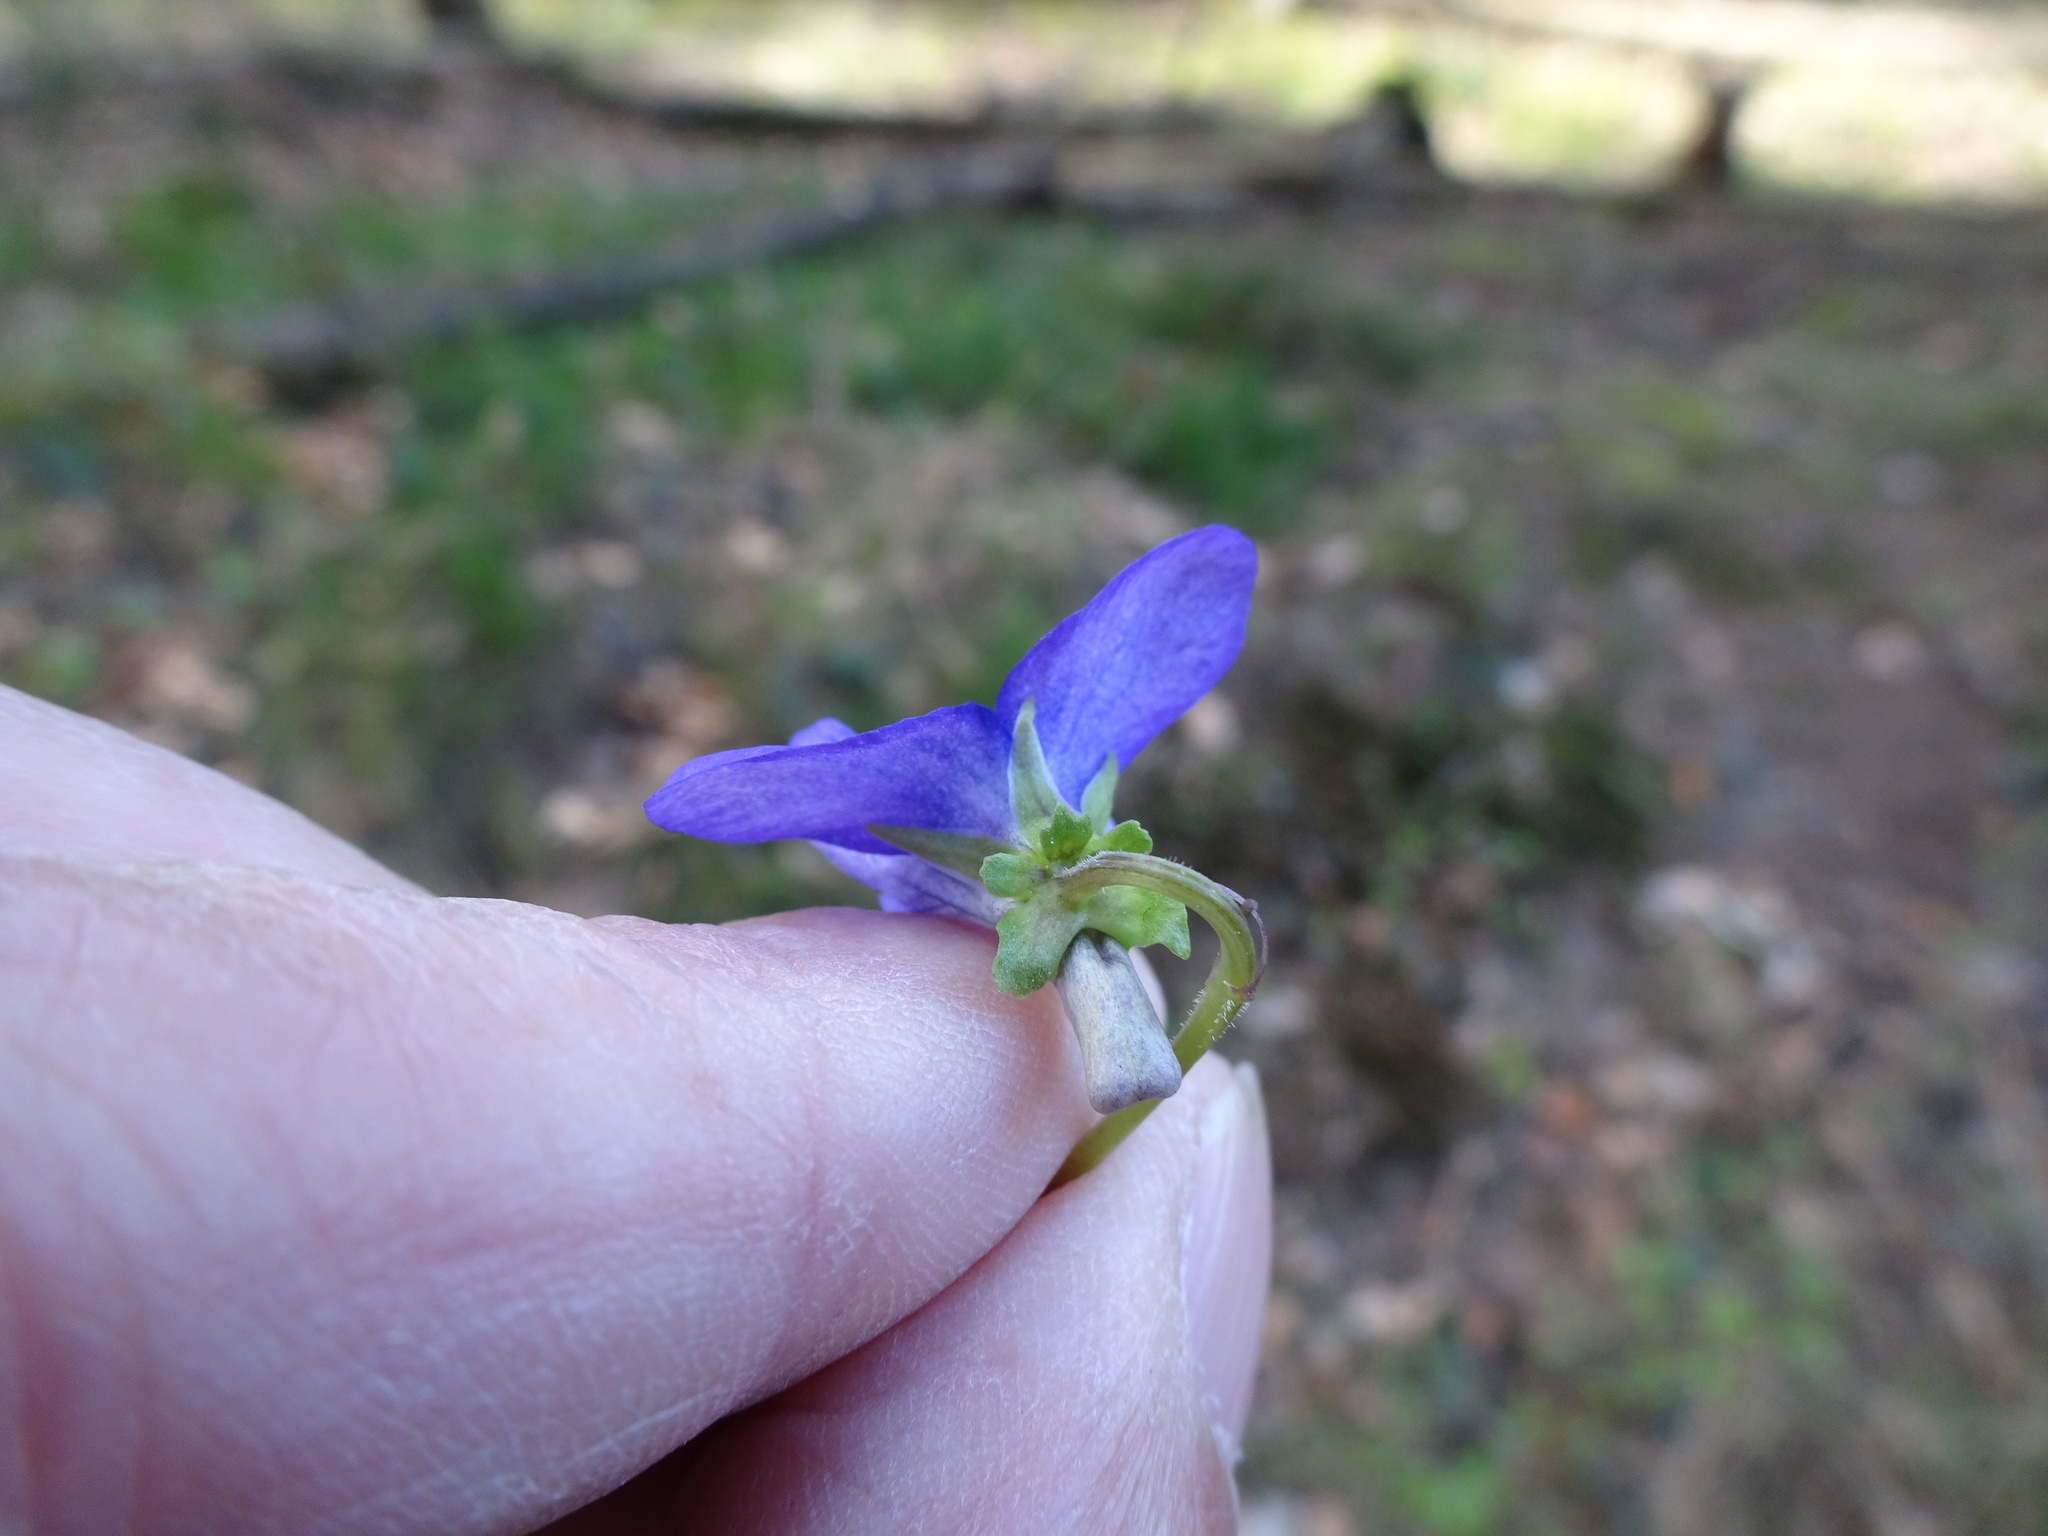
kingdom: Plantae
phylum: Tracheophyta
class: Magnoliopsida
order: Malpighiales
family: Violaceae
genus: Viola
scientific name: Viola bavarica
